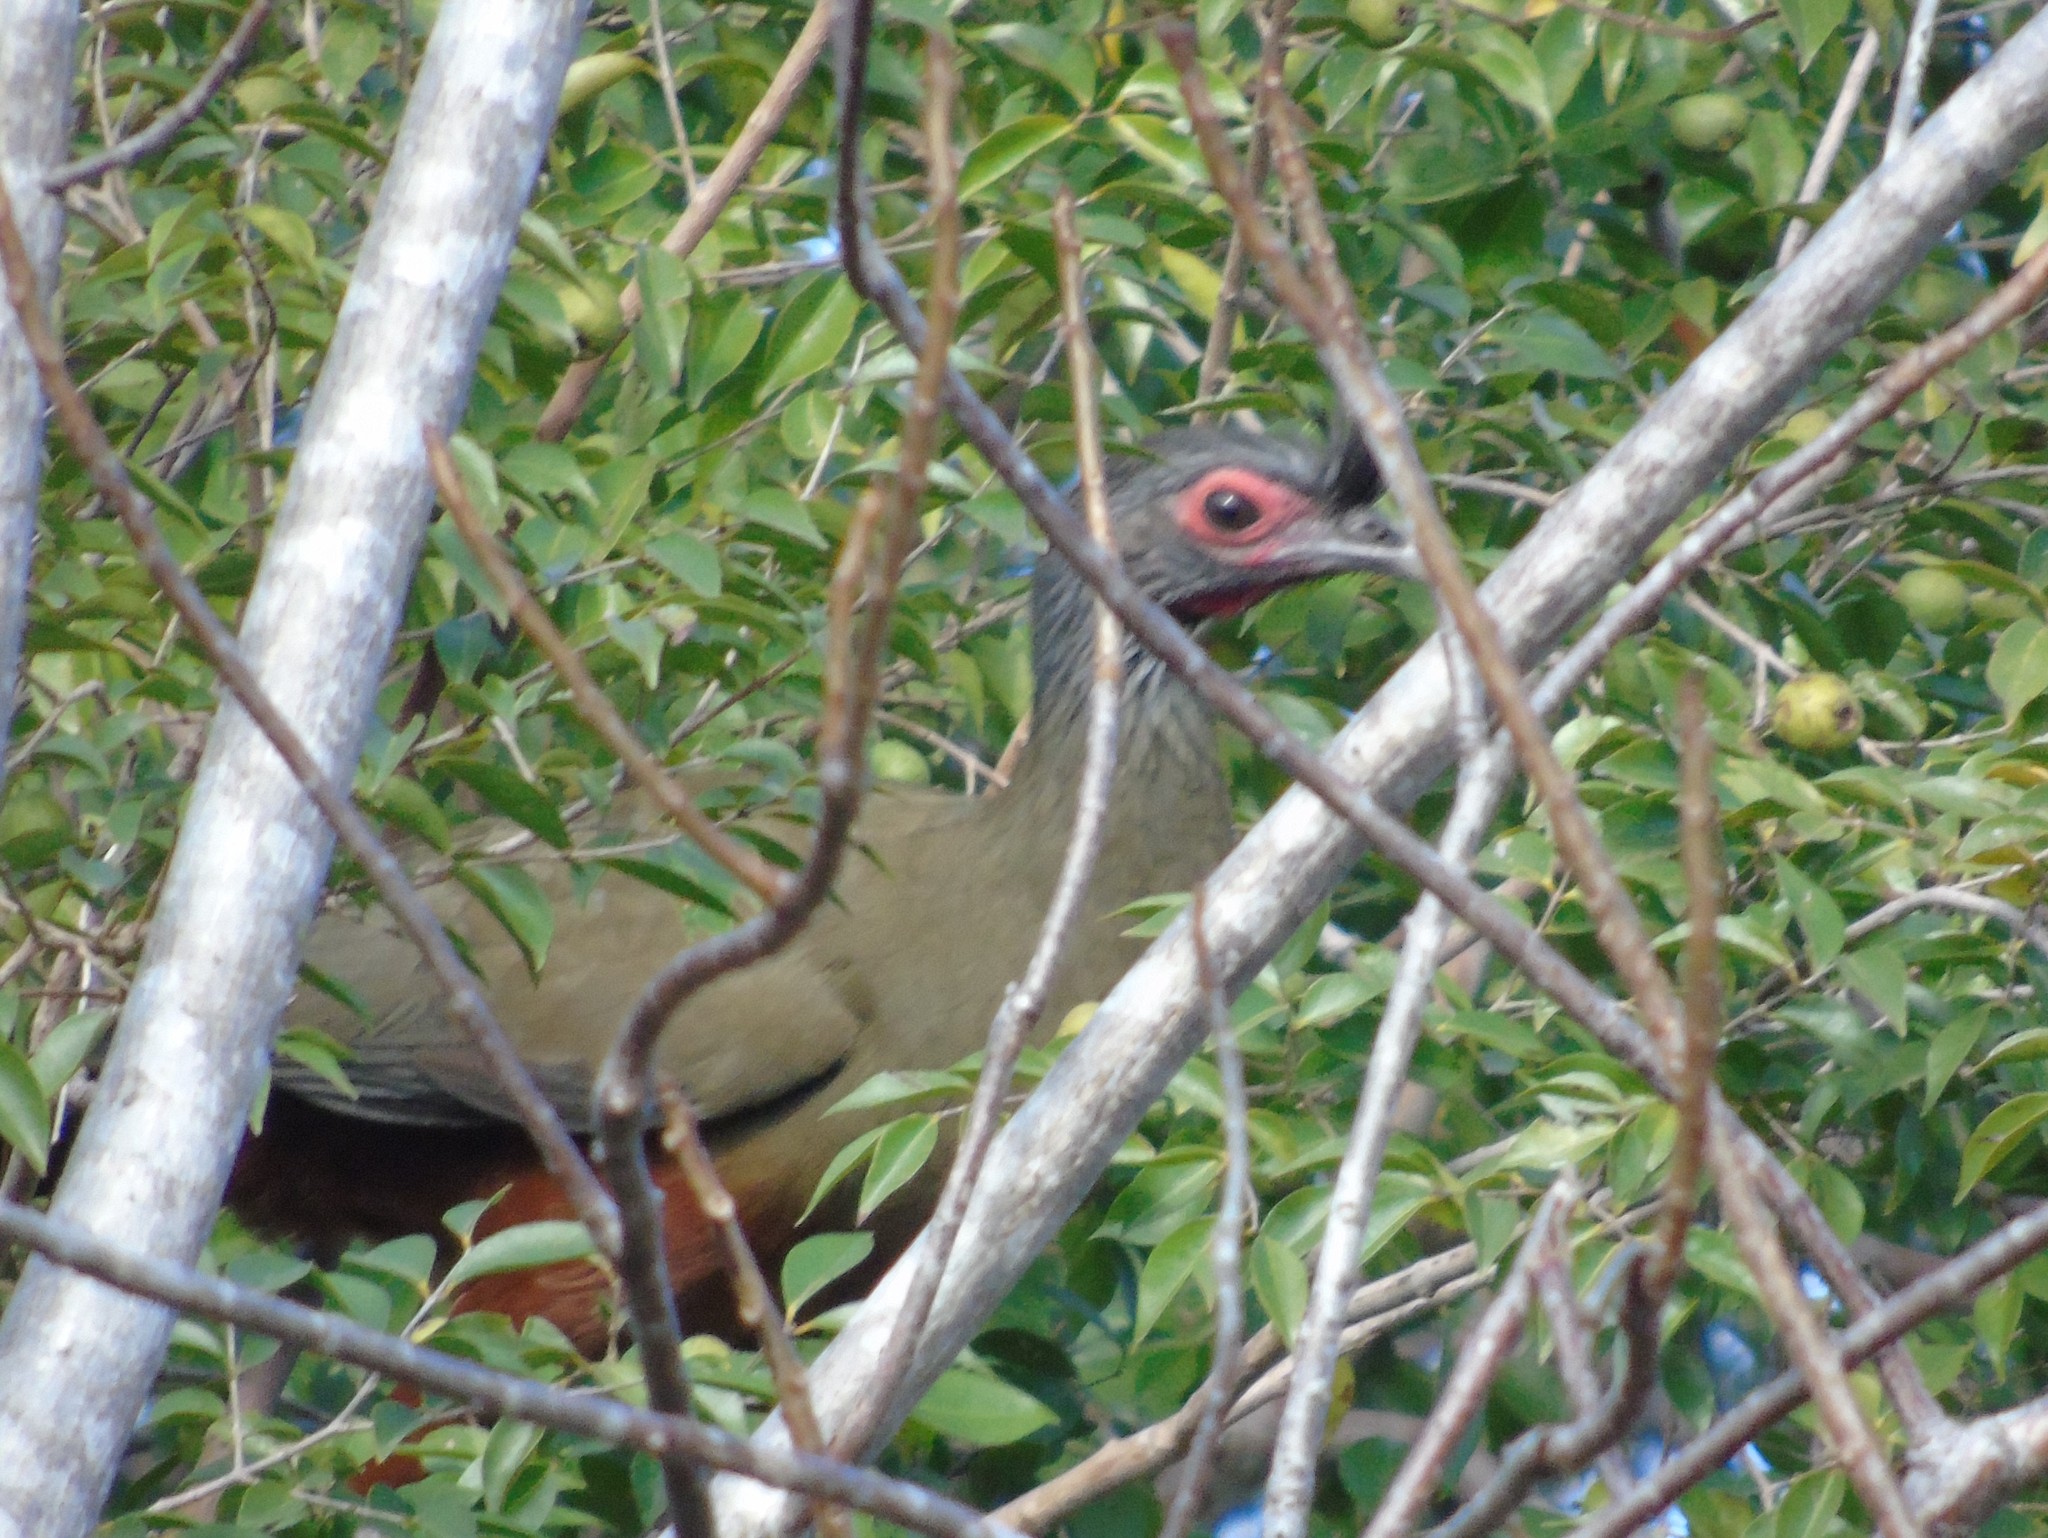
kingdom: Animalia
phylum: Chordata
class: Aves
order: Galliformes
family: Cracidae
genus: Ortalis
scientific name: Ortalis wagleri
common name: Rufous-bellied chachalaca
